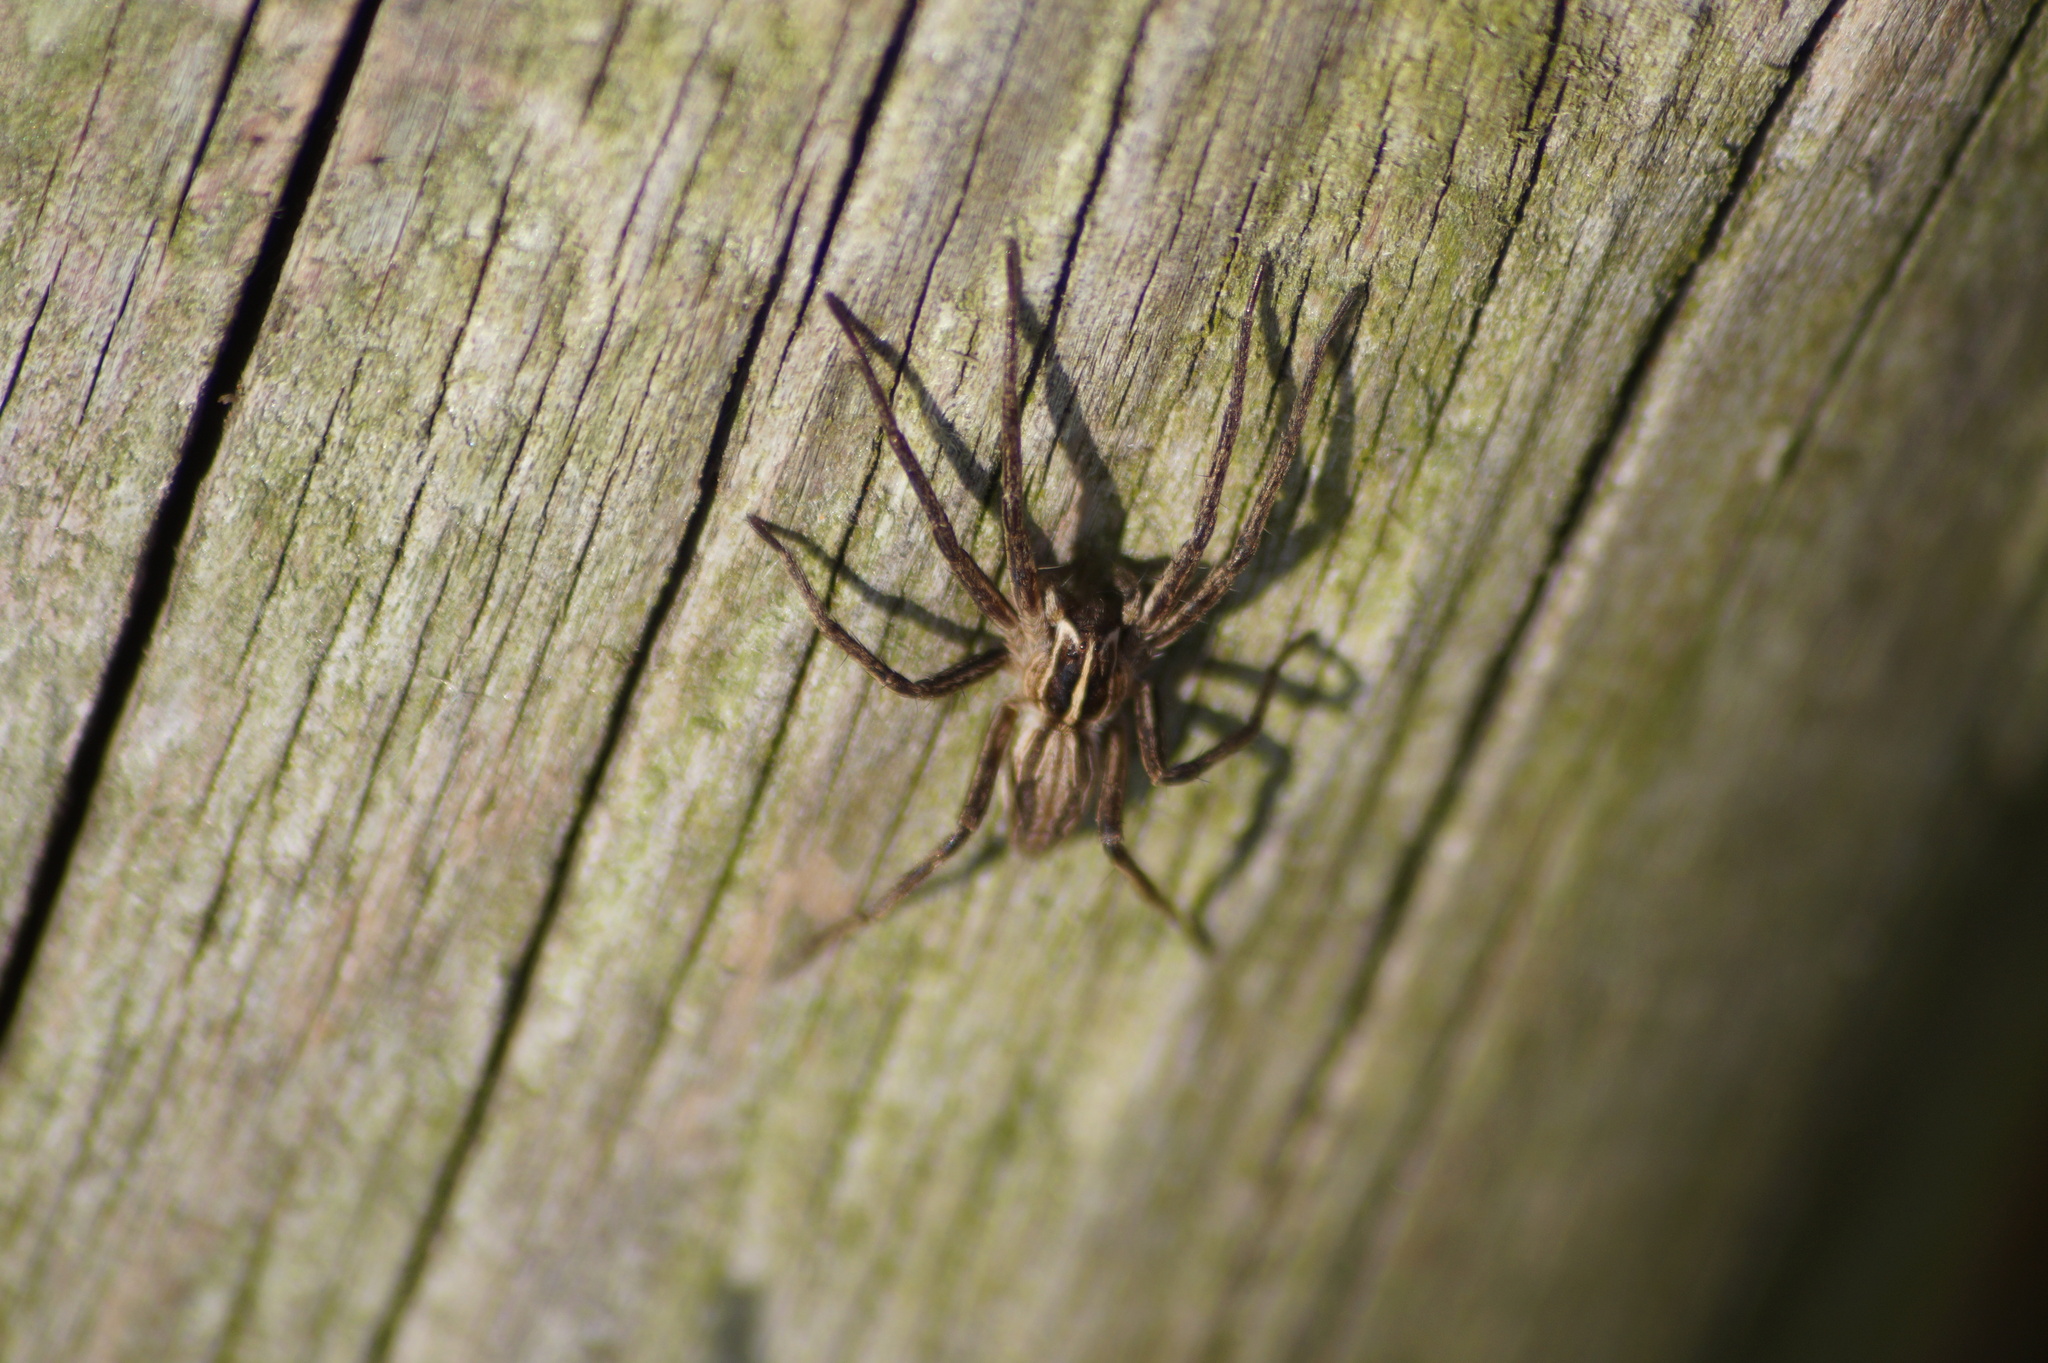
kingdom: Animalia
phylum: Arthropoda
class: Arachnida
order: Araneae
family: Pisauridae
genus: Pisaura
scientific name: Pisaura mirabilis
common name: Tent spider
